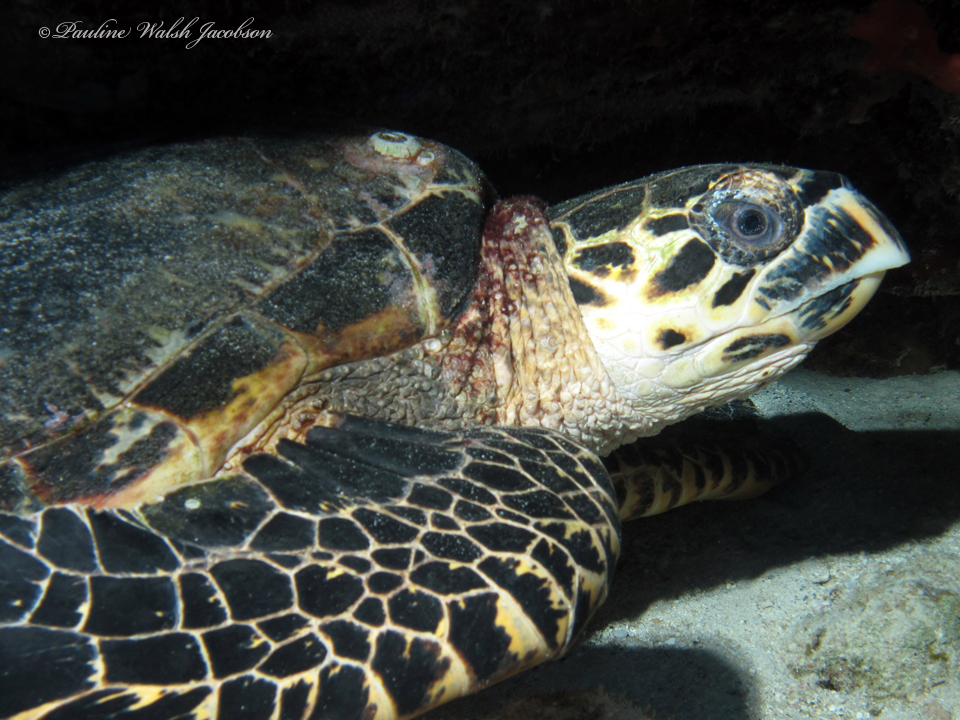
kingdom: Animalia
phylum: Chordata
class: Testudines
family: Cheloniidae
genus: Eretmochelys
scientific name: Eretmochelys imbricata
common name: Hawksbill turtle
